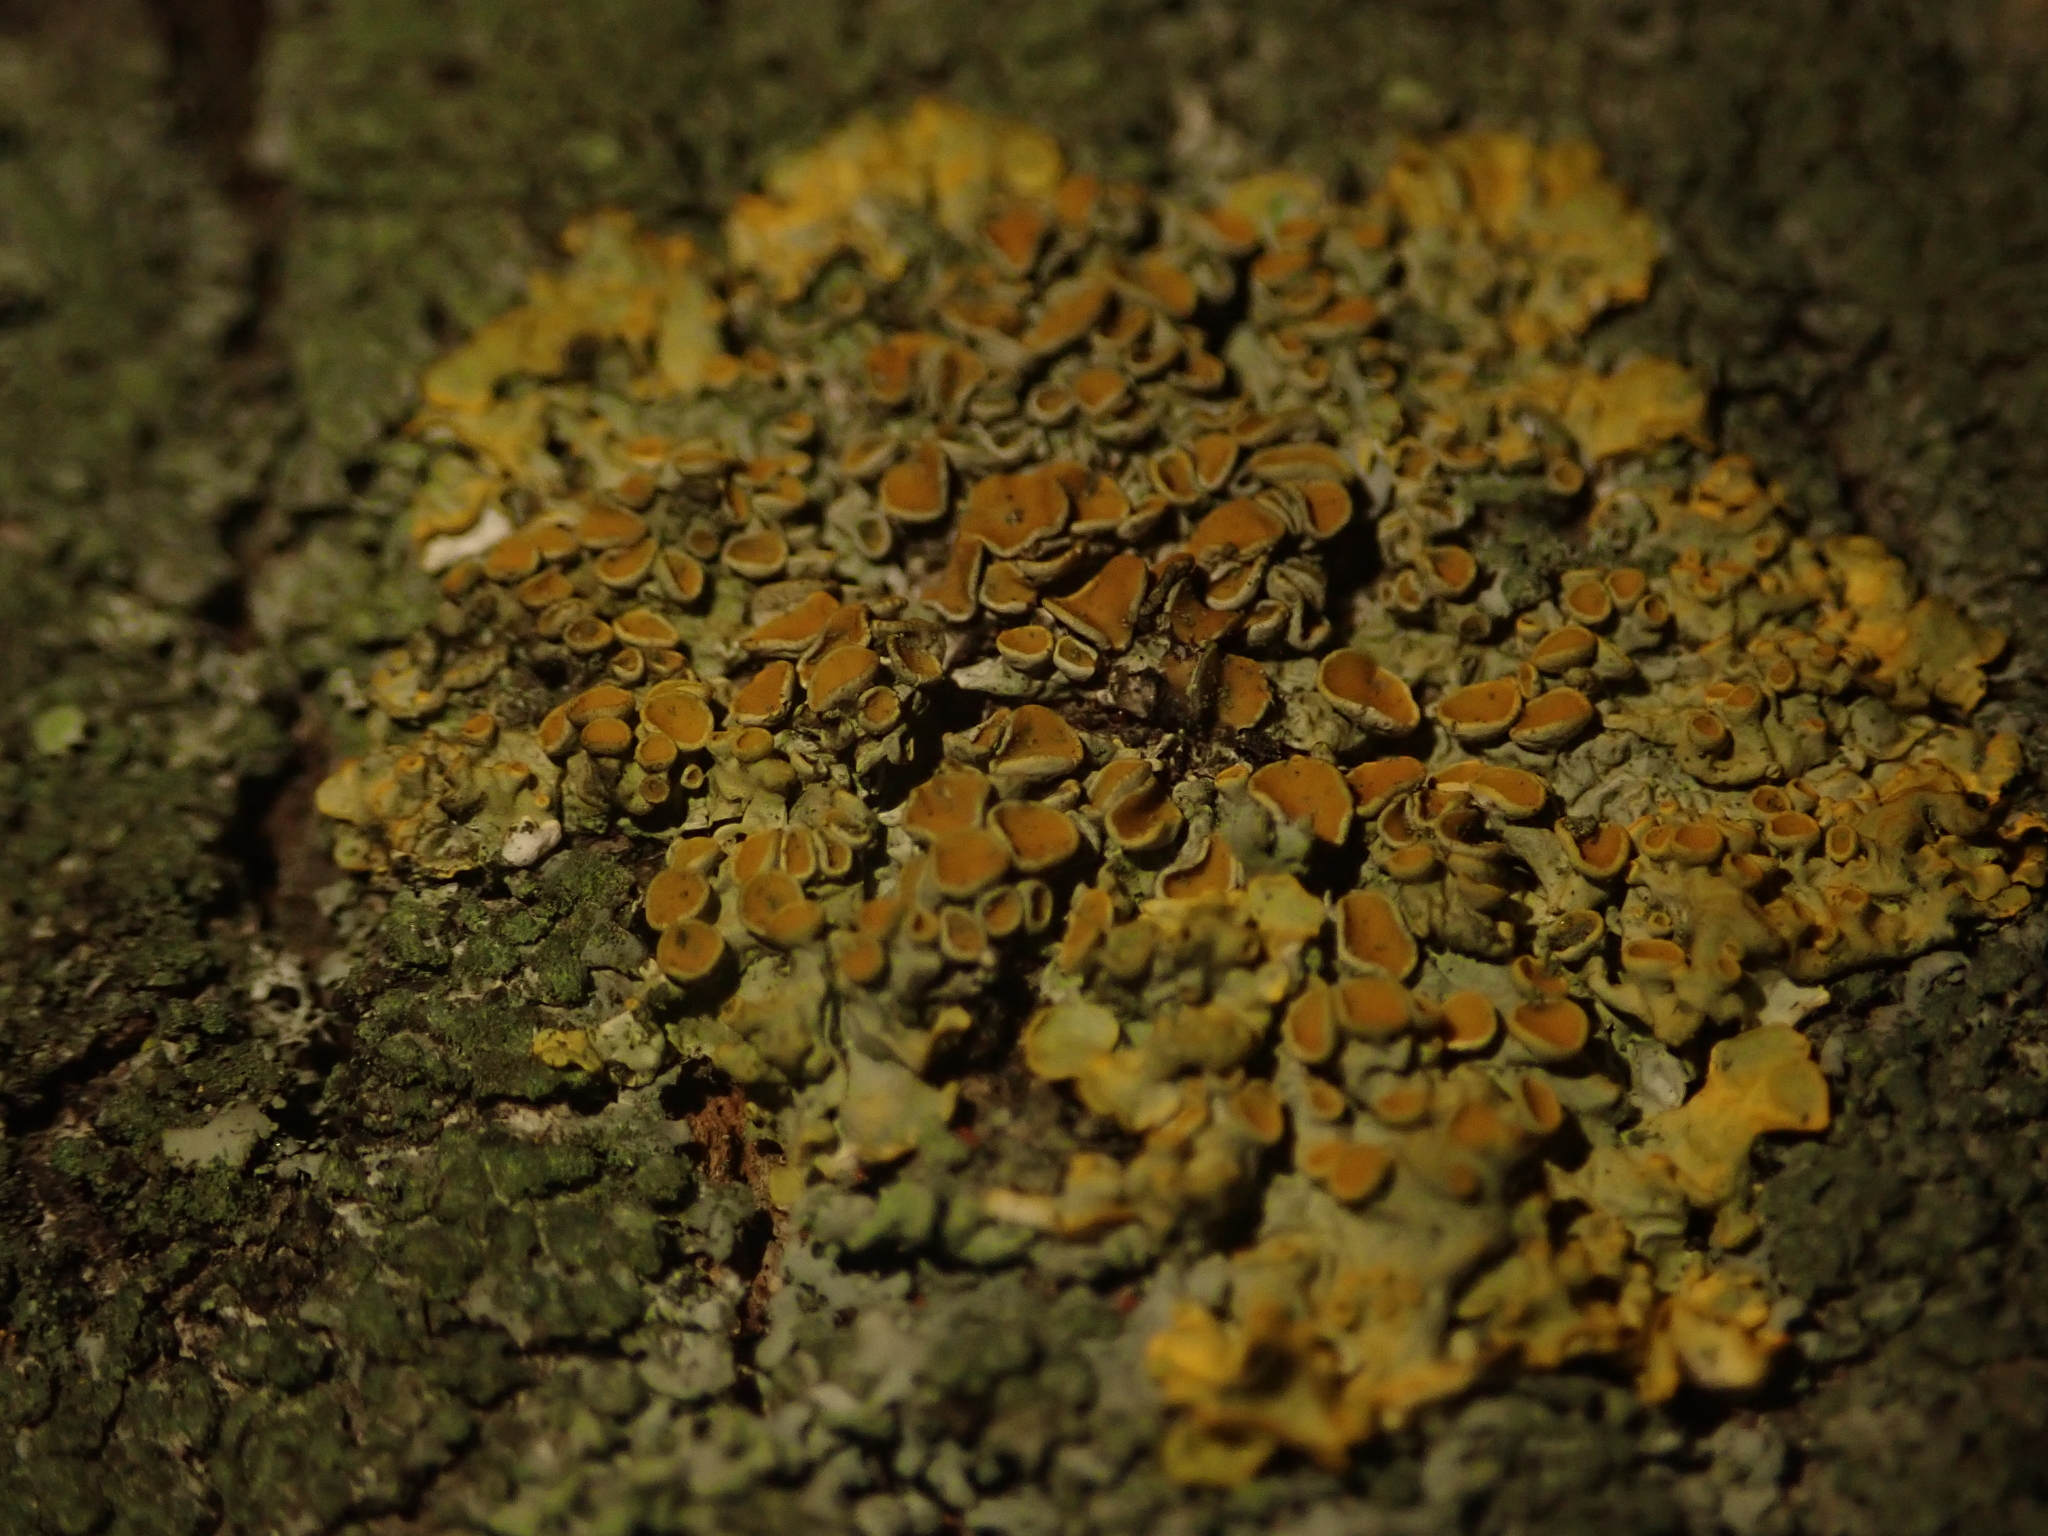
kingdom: Fungi
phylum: Ascomycota
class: Lecanoromycetes
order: Teloschistales
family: Teloschistaceae
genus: Xanthoria
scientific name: Xanthoria parietina
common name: Common orange lichen
